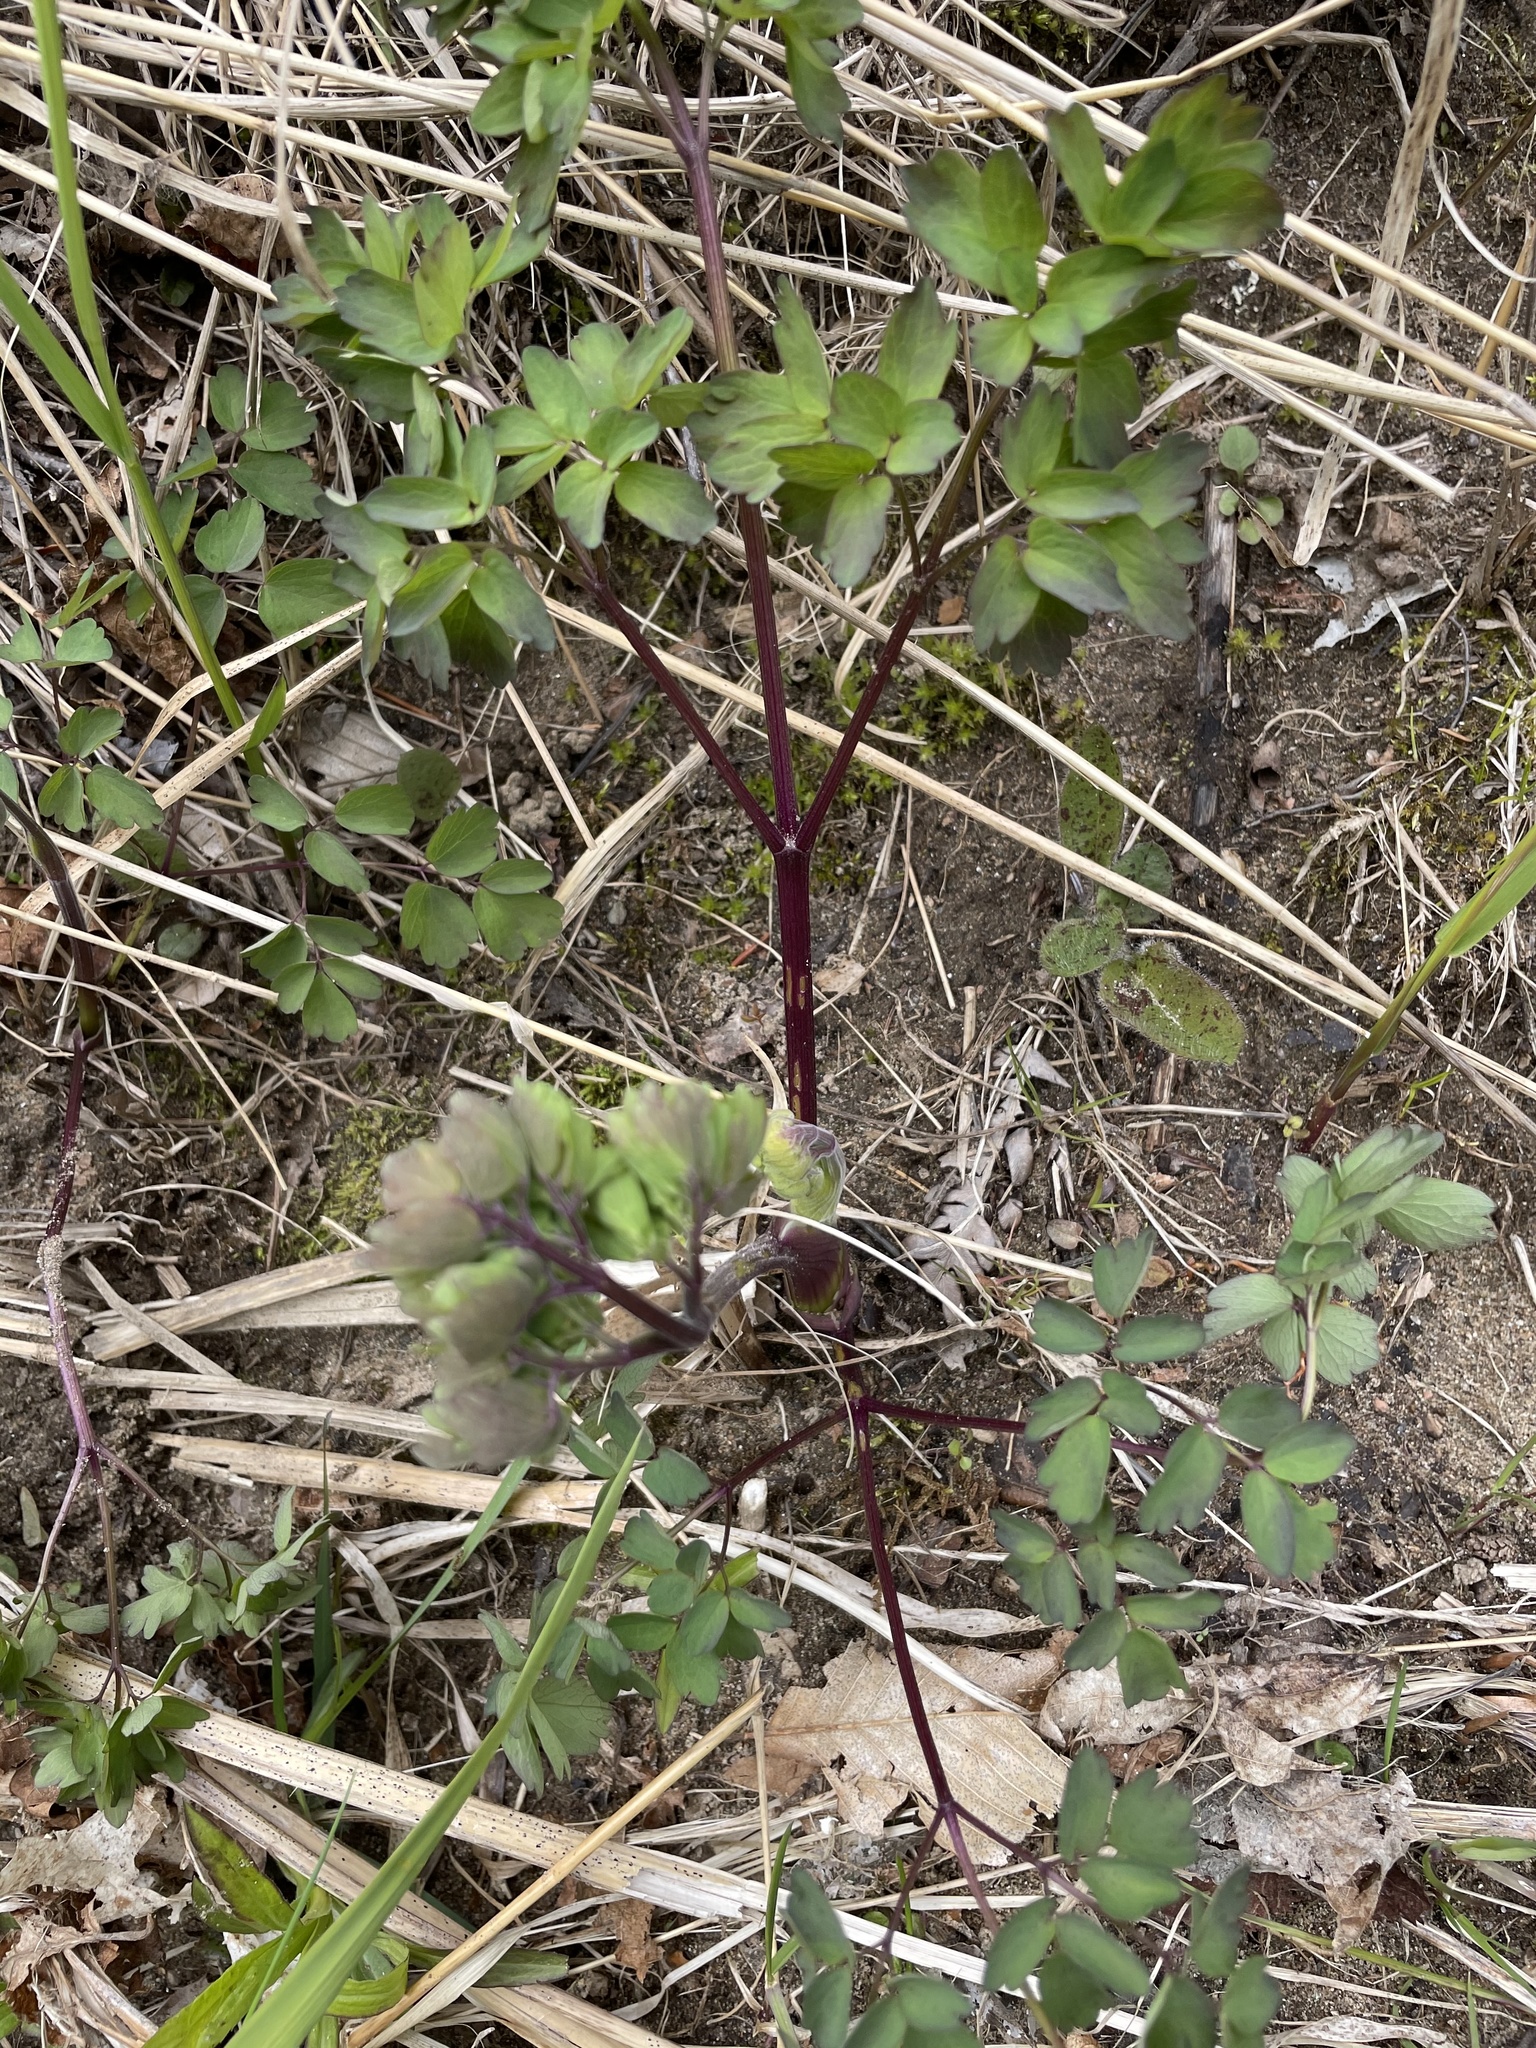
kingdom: Plantae
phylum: Tracheophyta
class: Magnoliopsida
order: Ranunculales
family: Ranunculaceae
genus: Thalictrum
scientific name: Thalictrum pubescens
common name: King-of-the-meadow
